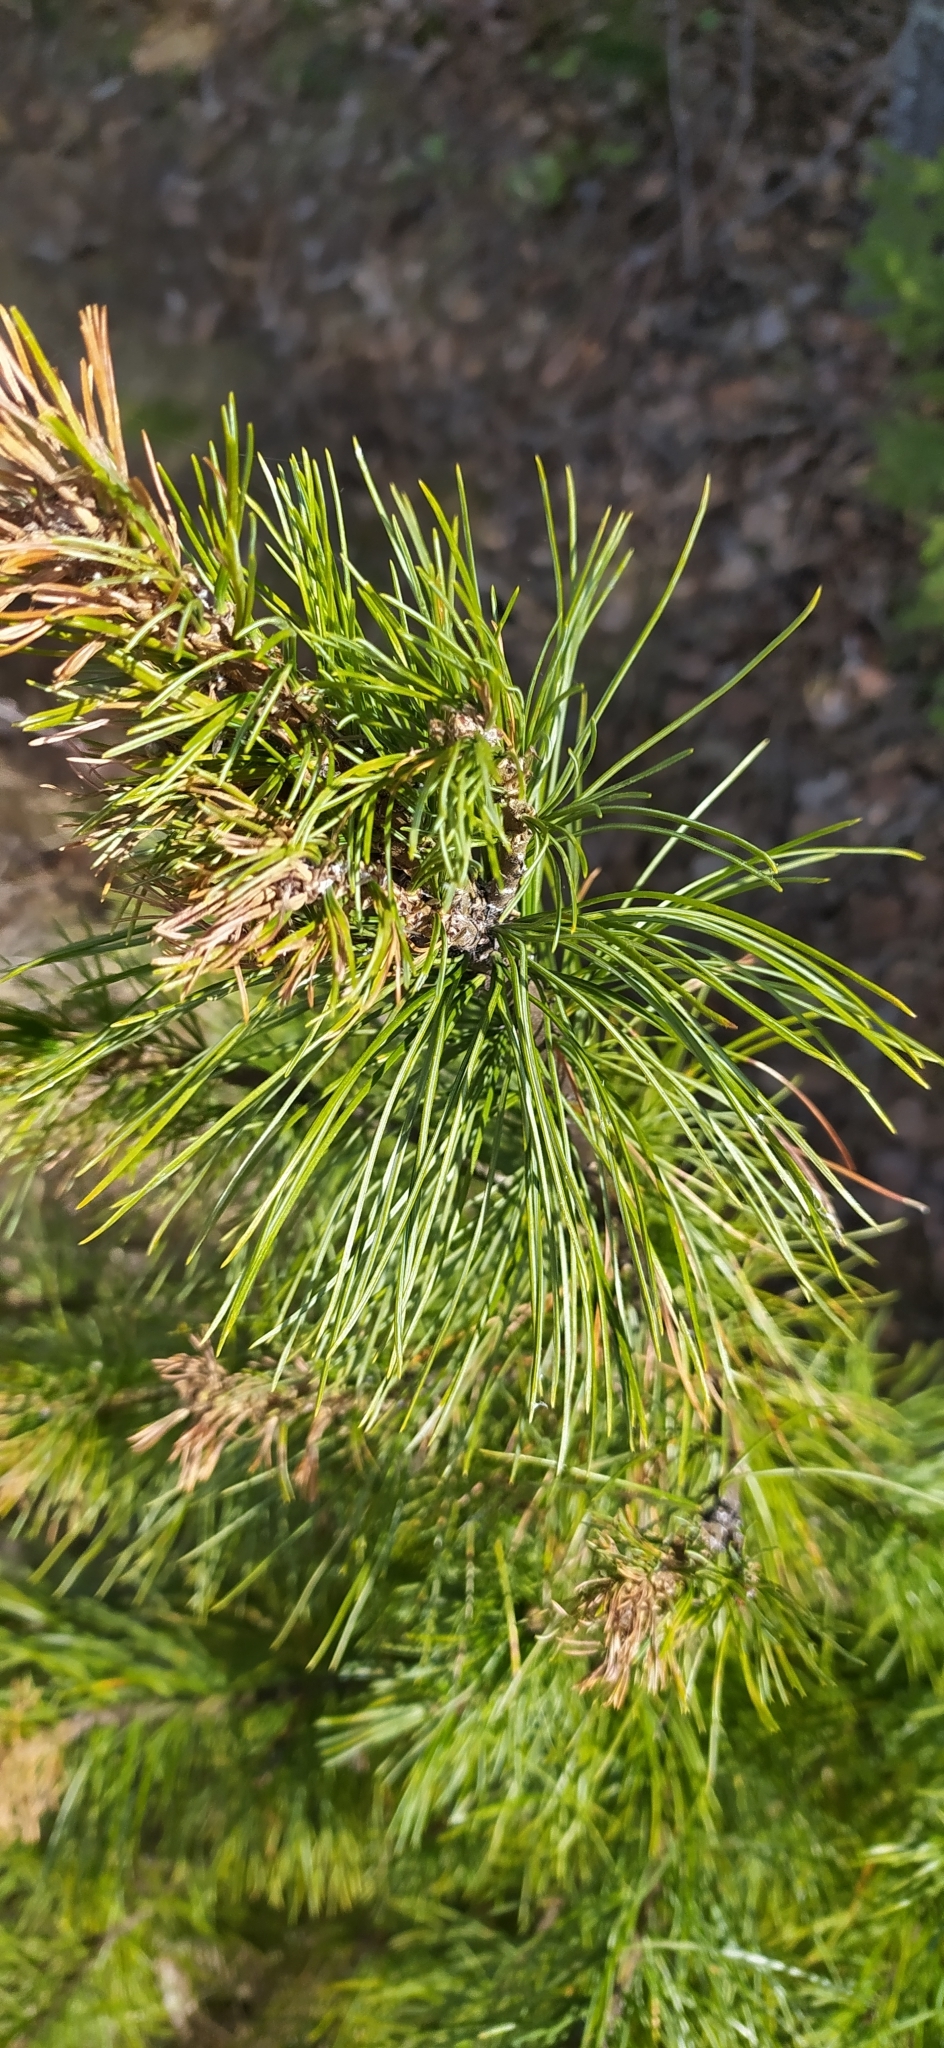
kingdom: Plantae
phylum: Tracheophyta
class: Pinopsida
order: Pinales
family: Pinaceae
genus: Pinus
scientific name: Pinus sibirica
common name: Siberian pine
